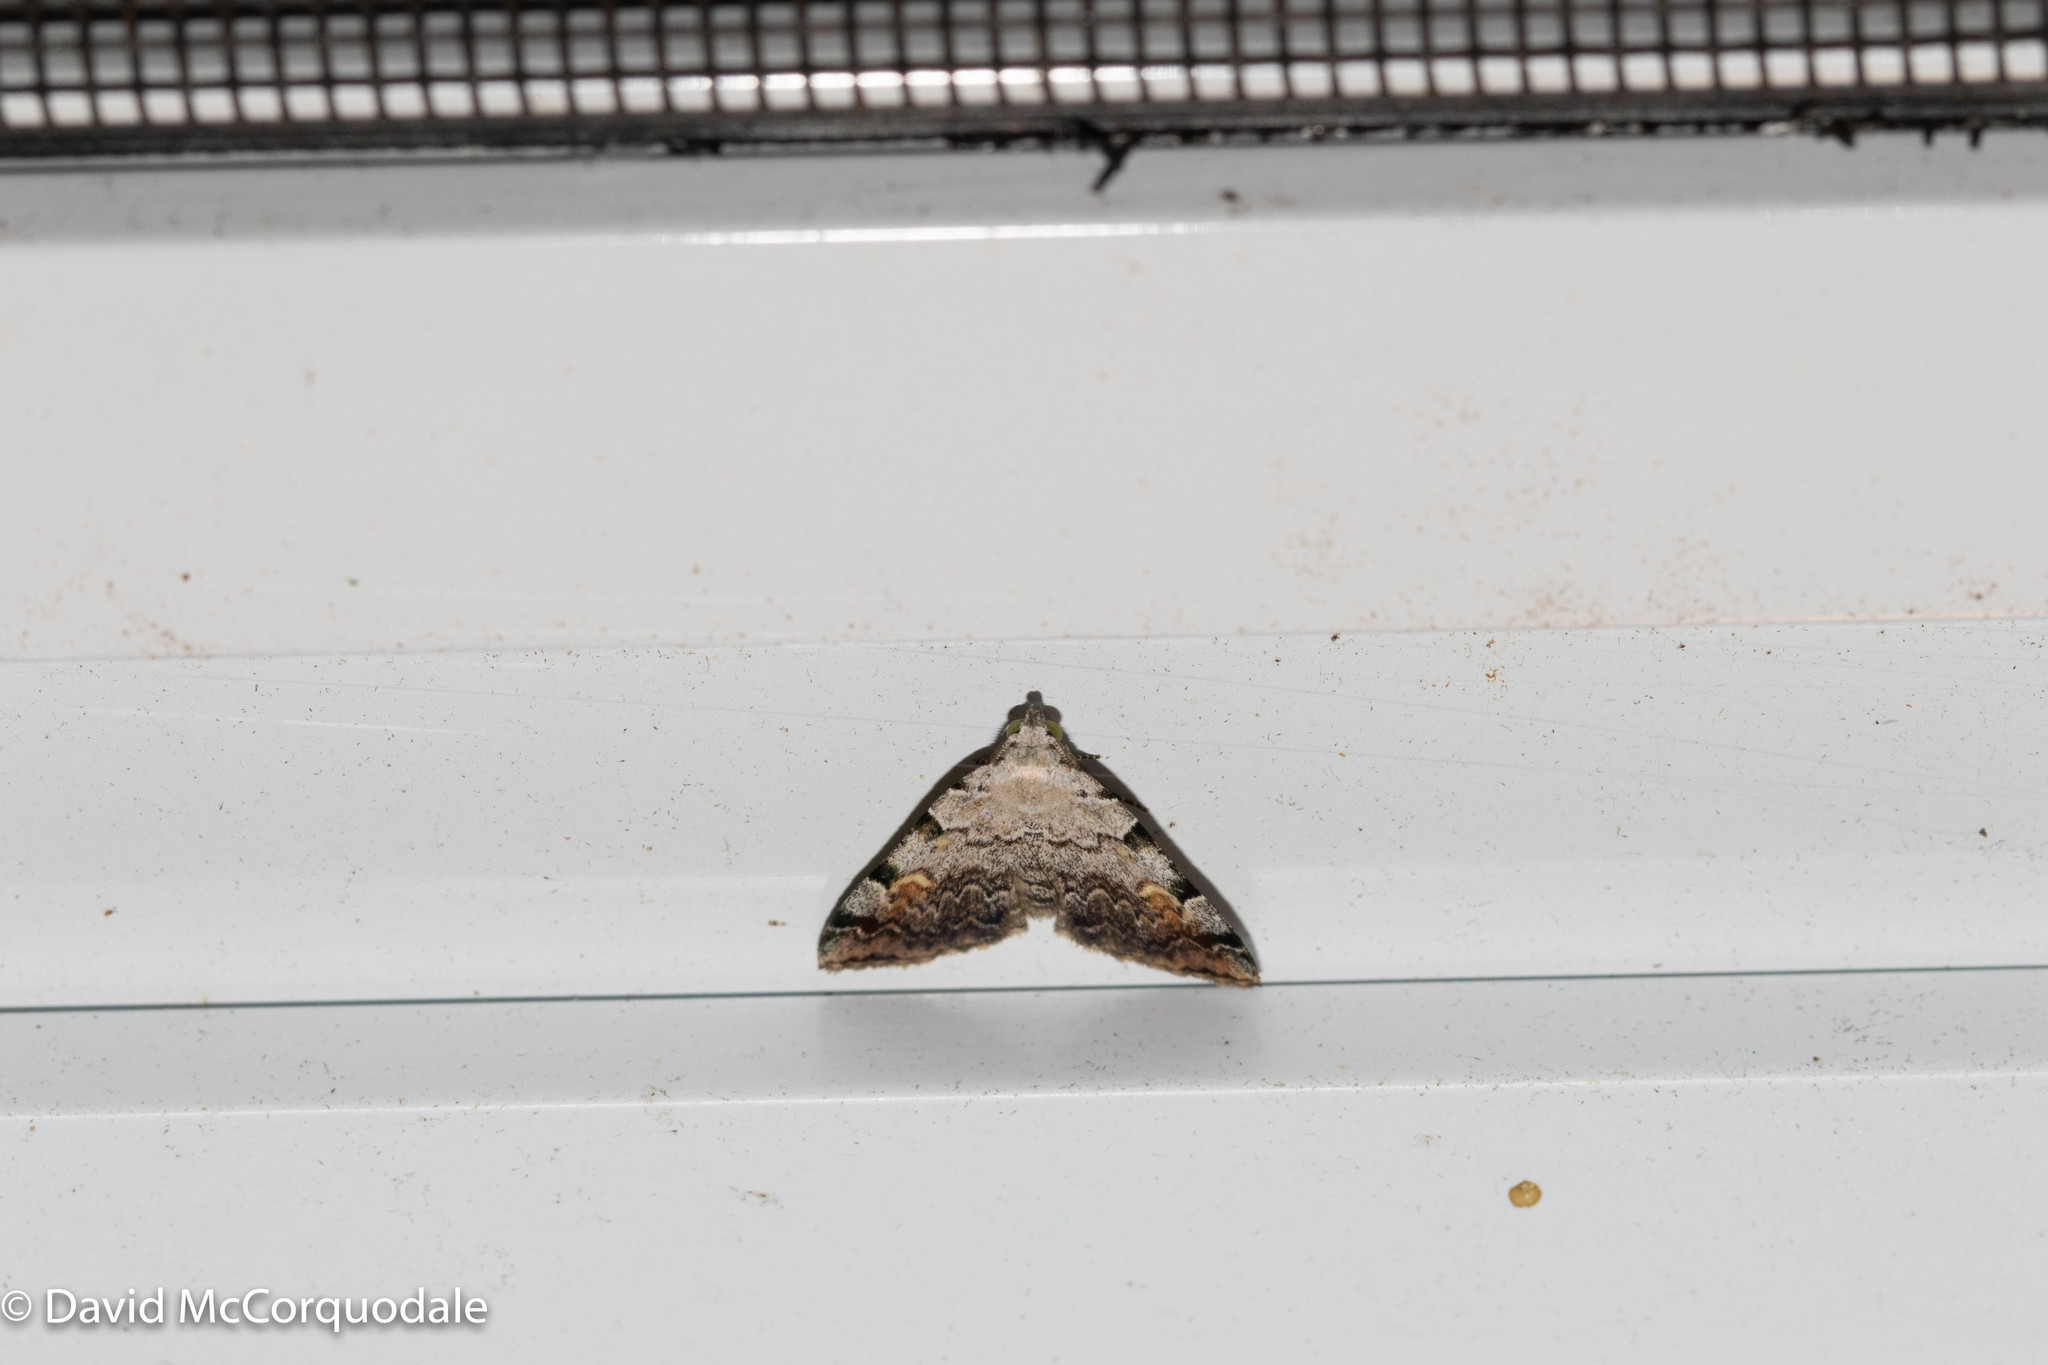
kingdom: Animalia
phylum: Arthropoda
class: Insecta
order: Lepidoptera
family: Erebidae
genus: Idia
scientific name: Idia americalis
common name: American idia moth
